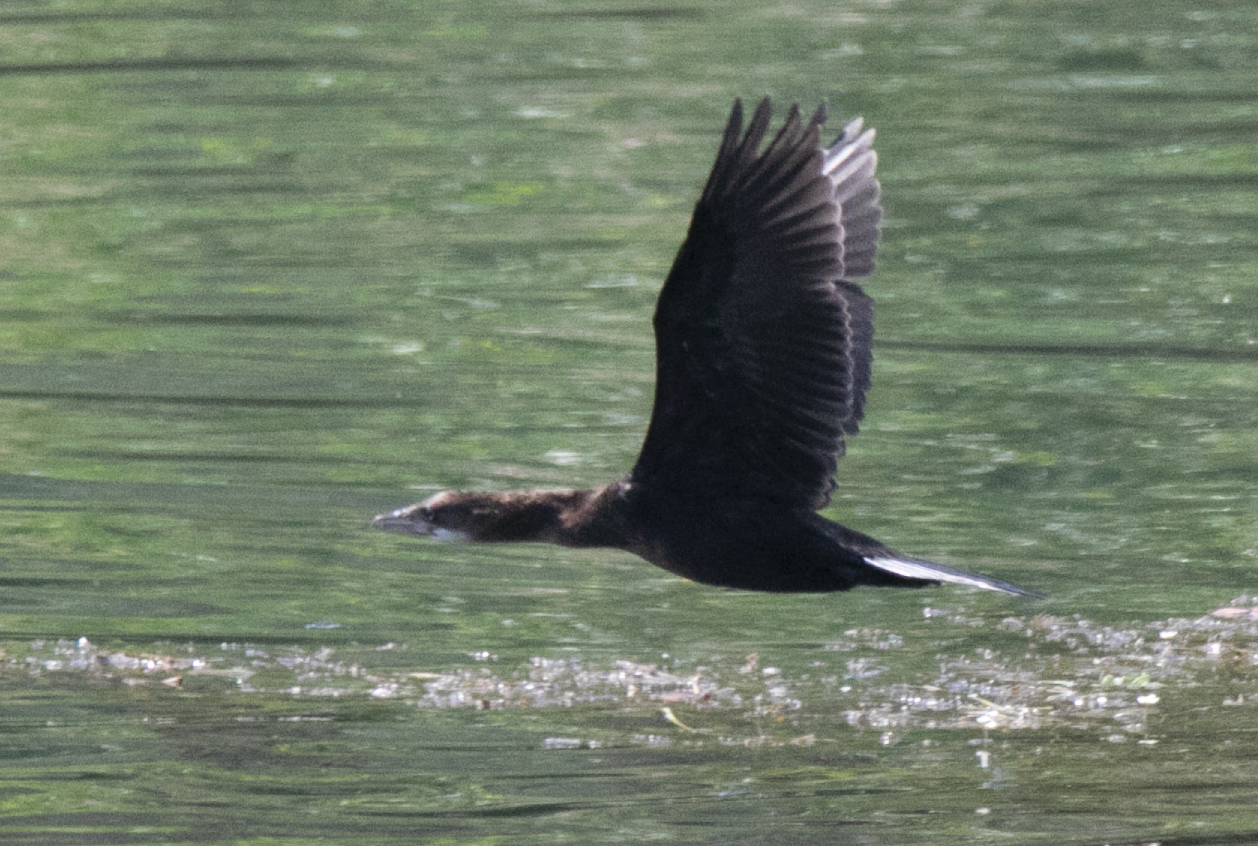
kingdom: Animalia
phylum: Chordata
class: Aves
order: Suliformes
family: Phalacrocoracidae
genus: Microcarbo
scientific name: Microcarbo pygmaeus
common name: Pygmy cormorant
